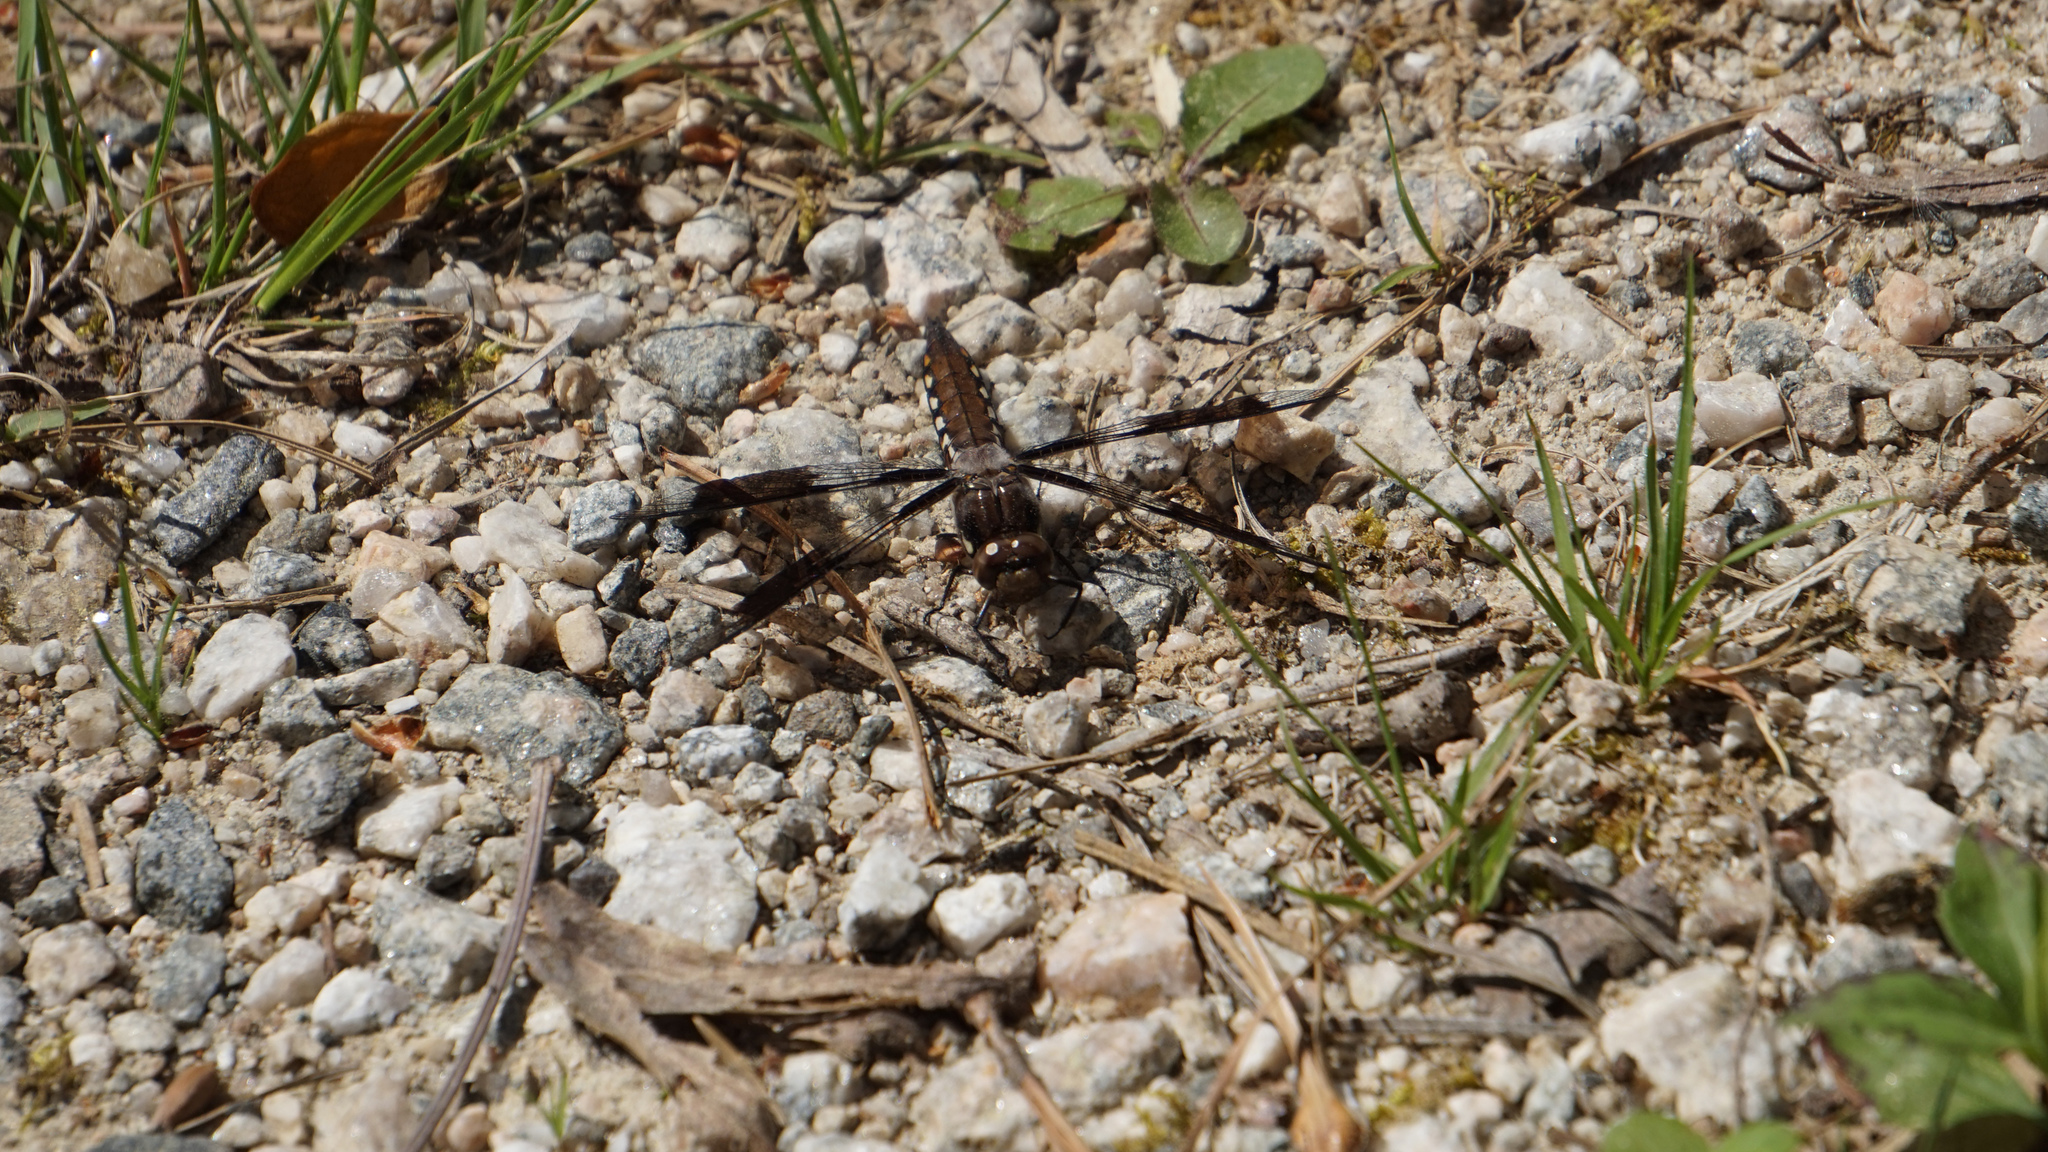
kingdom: Animalia
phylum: Arthropoda
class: Insecta
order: Odonata
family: Libellulidae
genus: Plathemis
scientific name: Plathemis lydia
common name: Common whitetail
